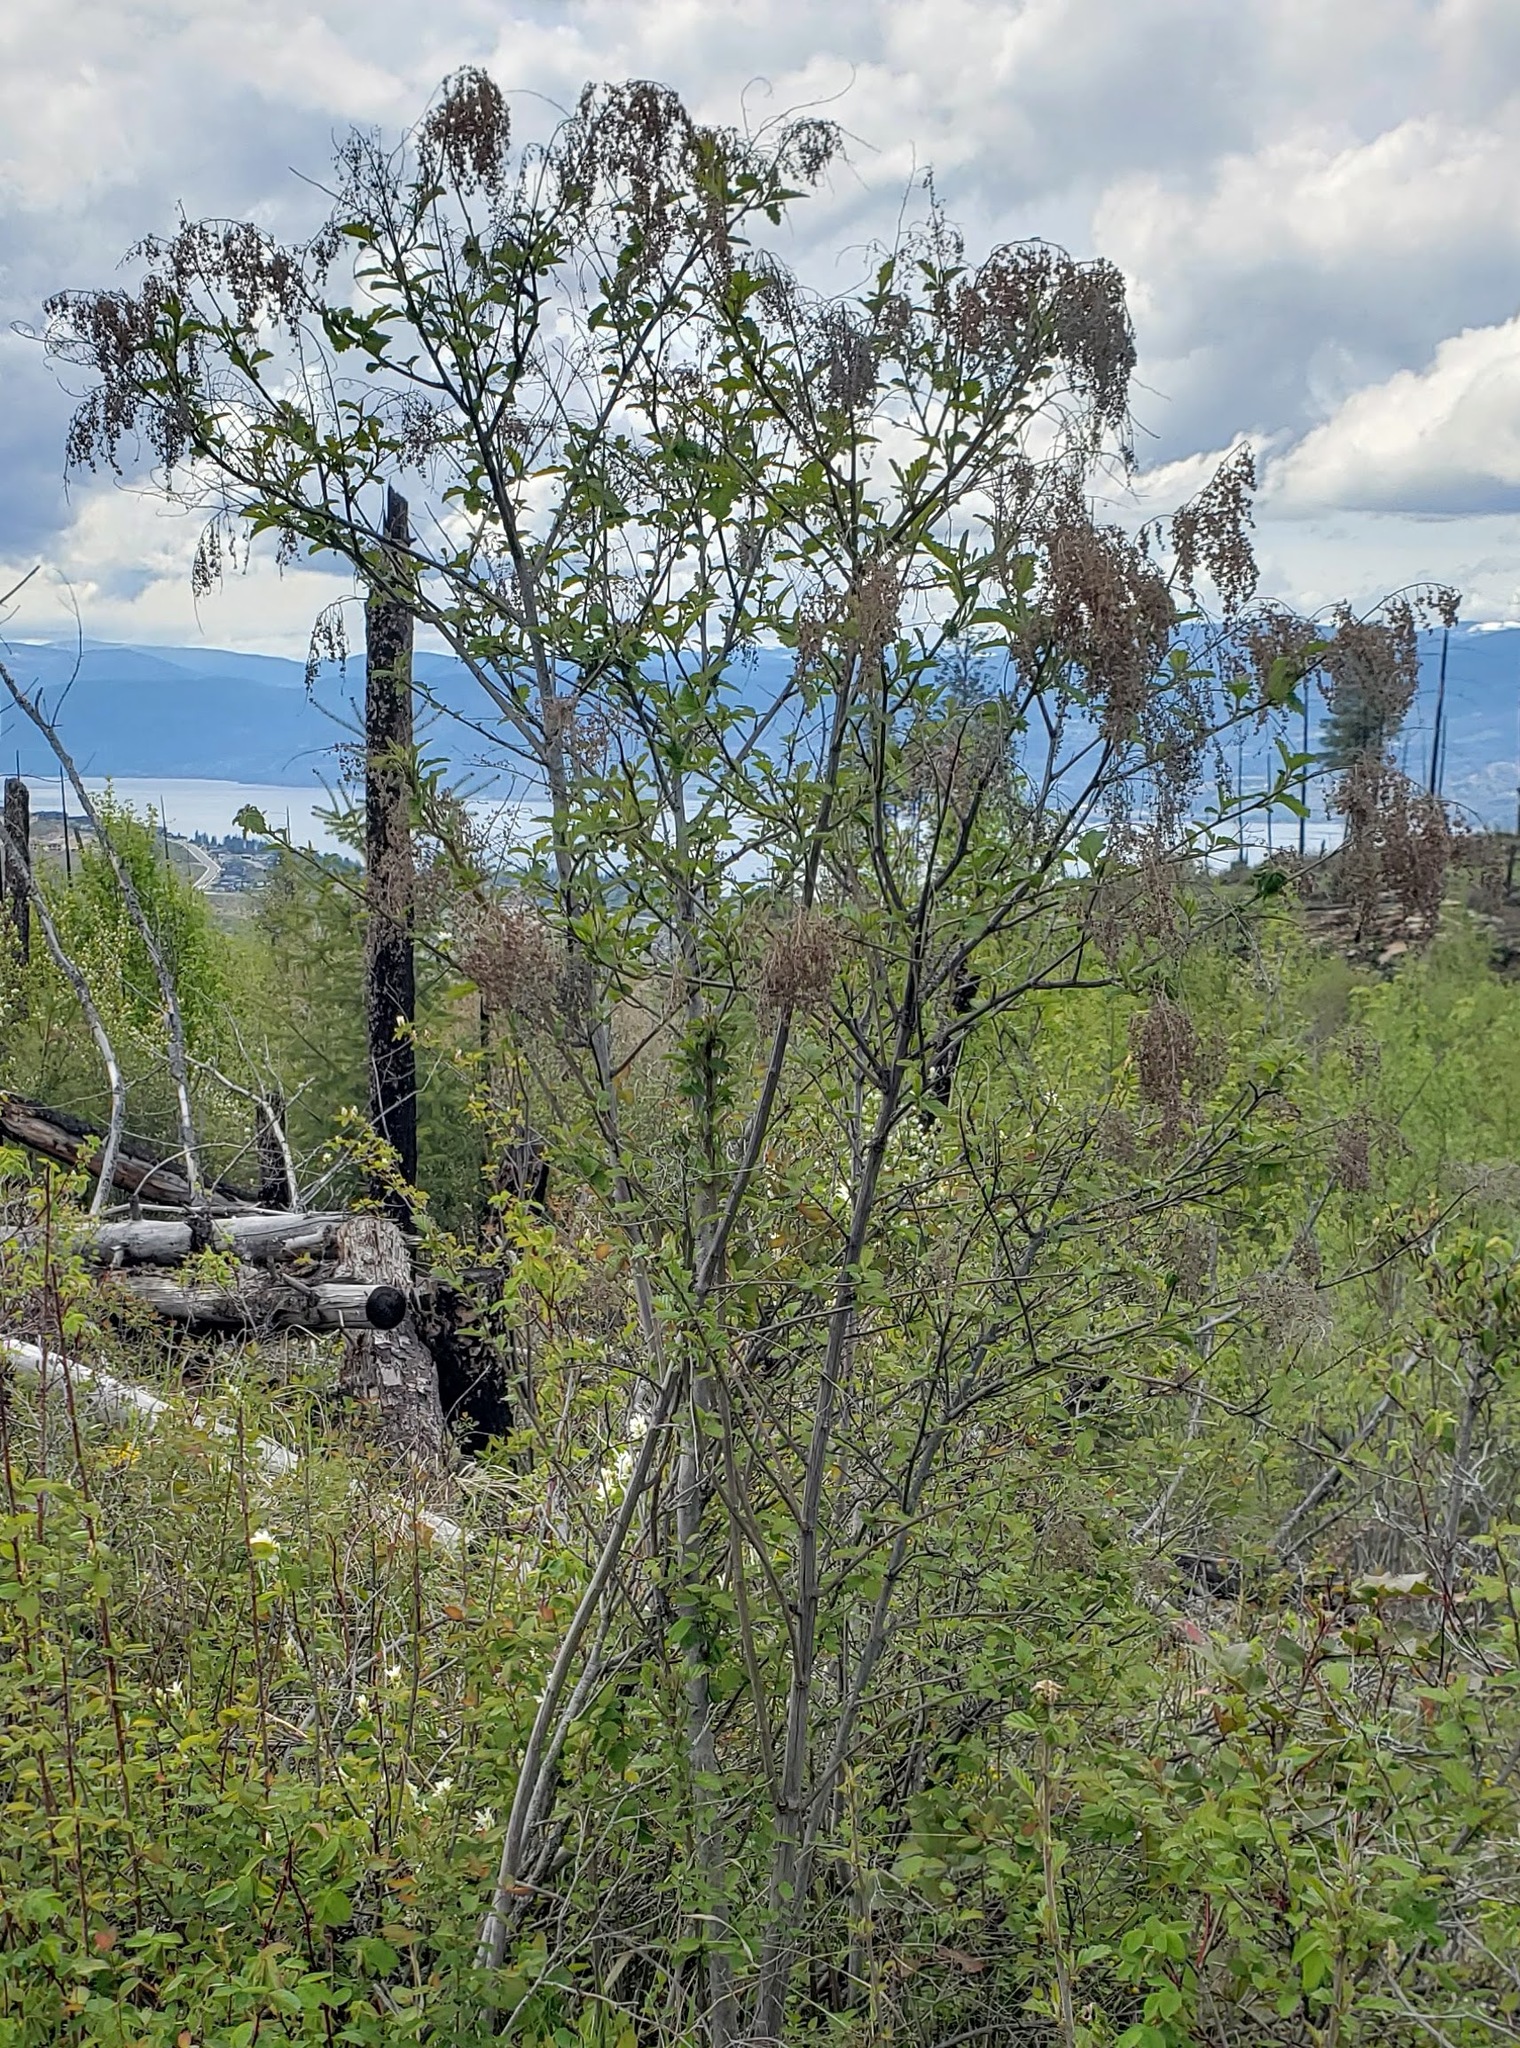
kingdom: Plantae
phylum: Tracheophyta
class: Magnoliopsida
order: Rosales
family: Rosaceae
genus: Holodiscus
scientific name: Holodiscus discolor
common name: Oceanspray
